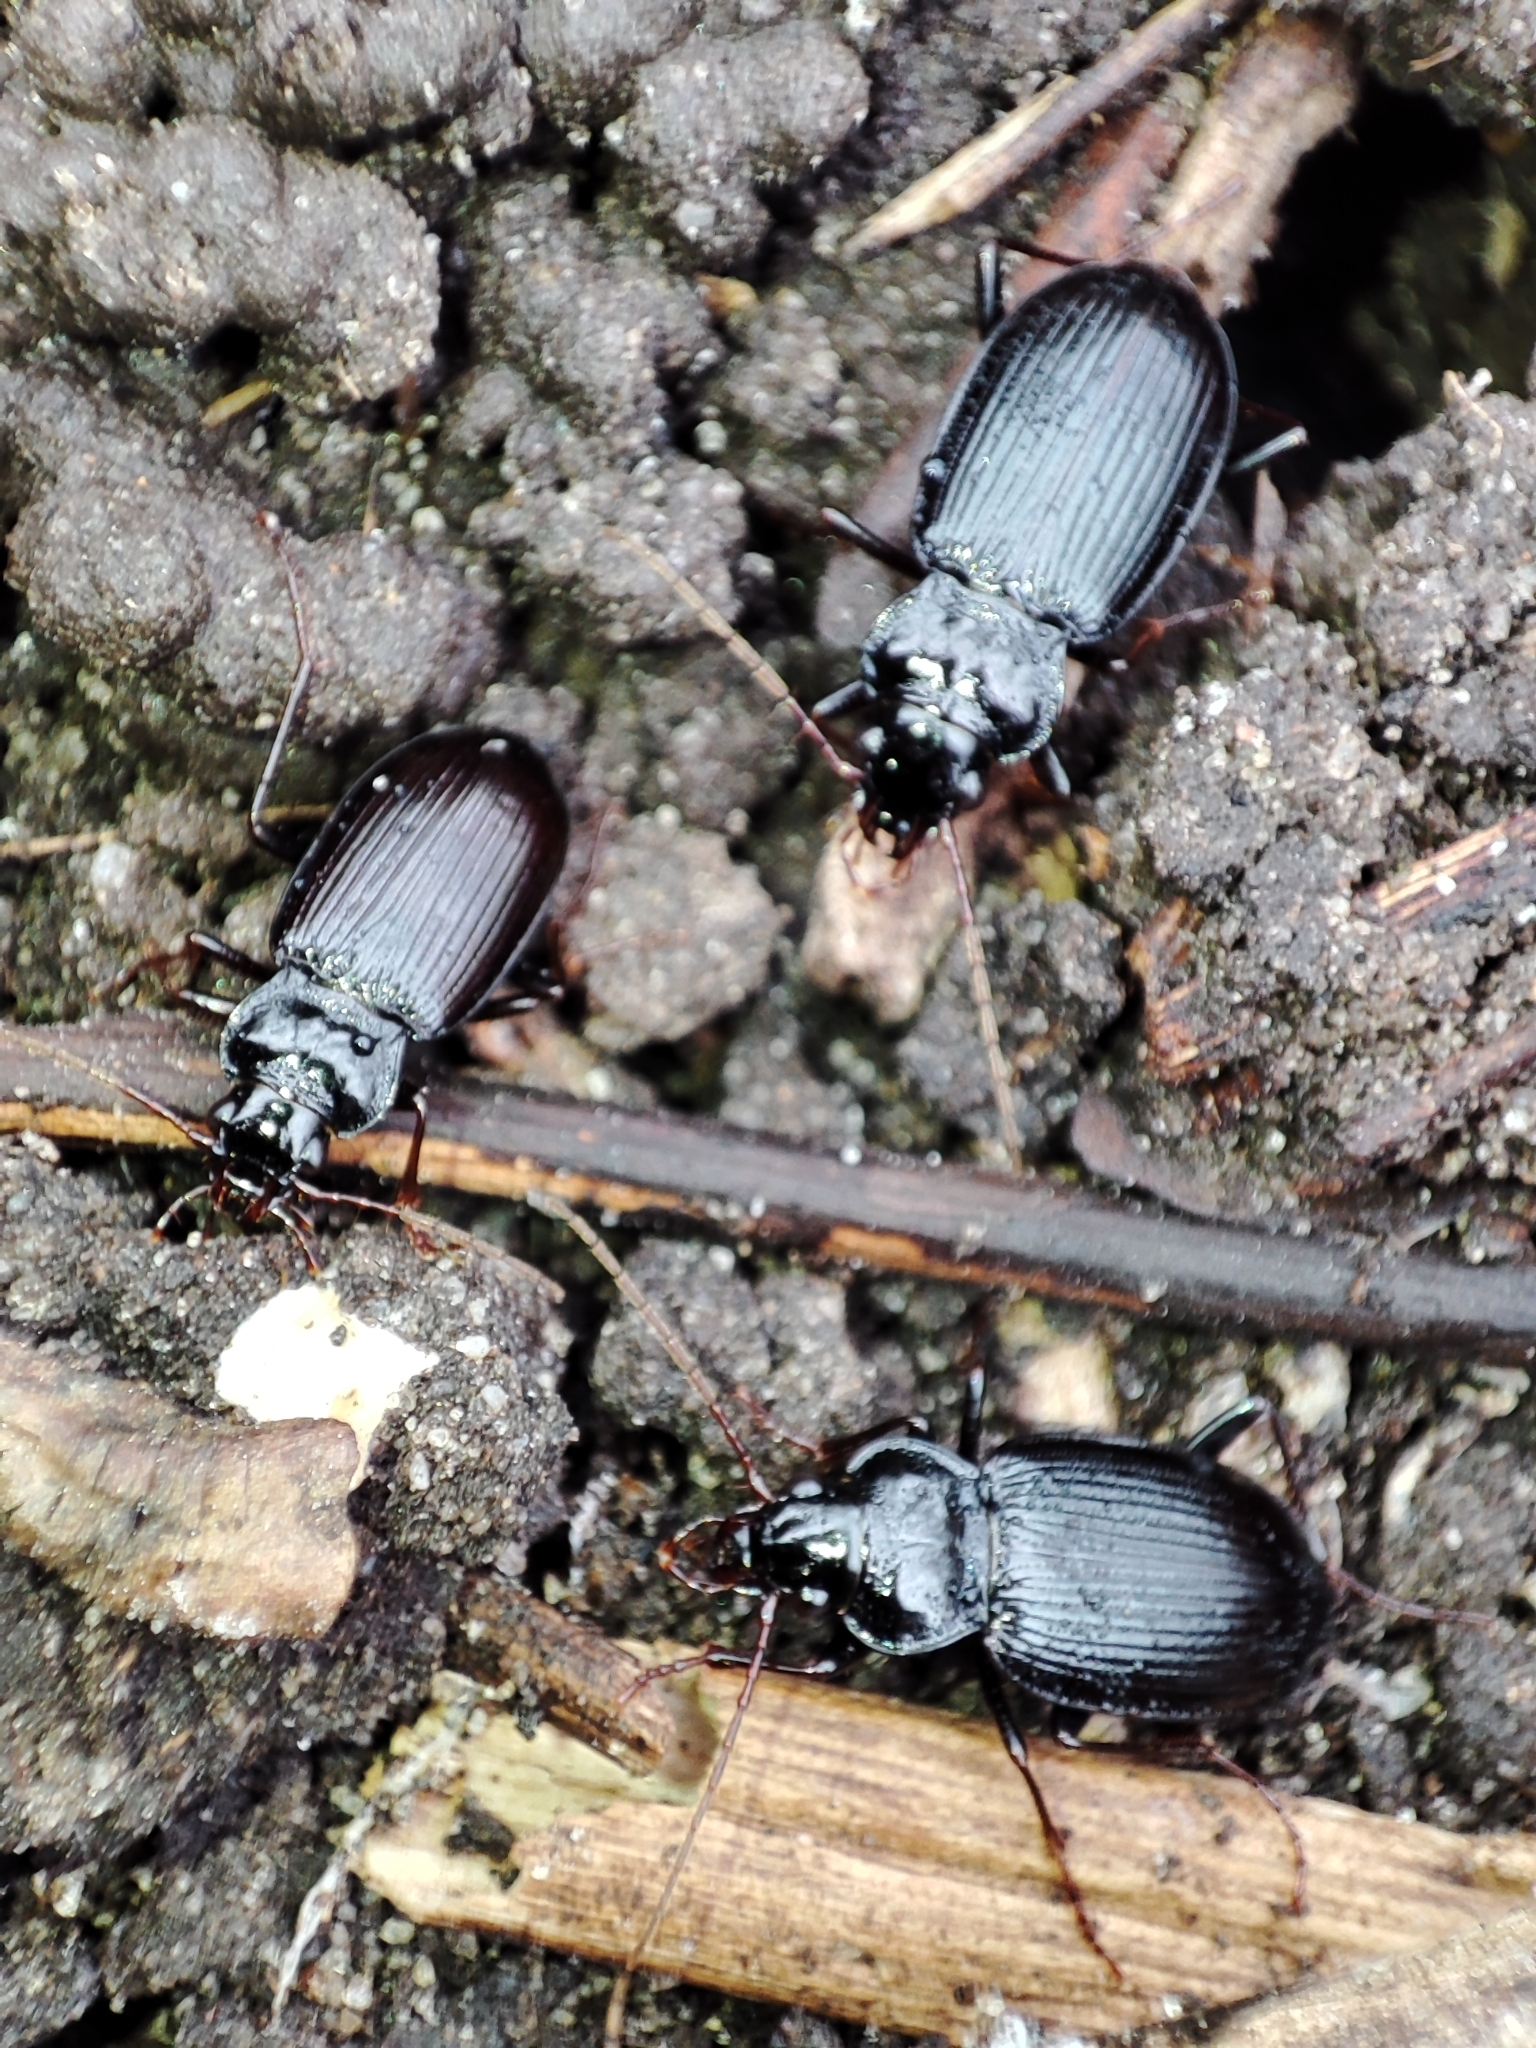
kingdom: Animalia
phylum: Arthropoda
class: Insecta
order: Coleoptera
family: Carabidae
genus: Nebria
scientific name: Nebria brevicollis
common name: Short-necked gazelle beetle
